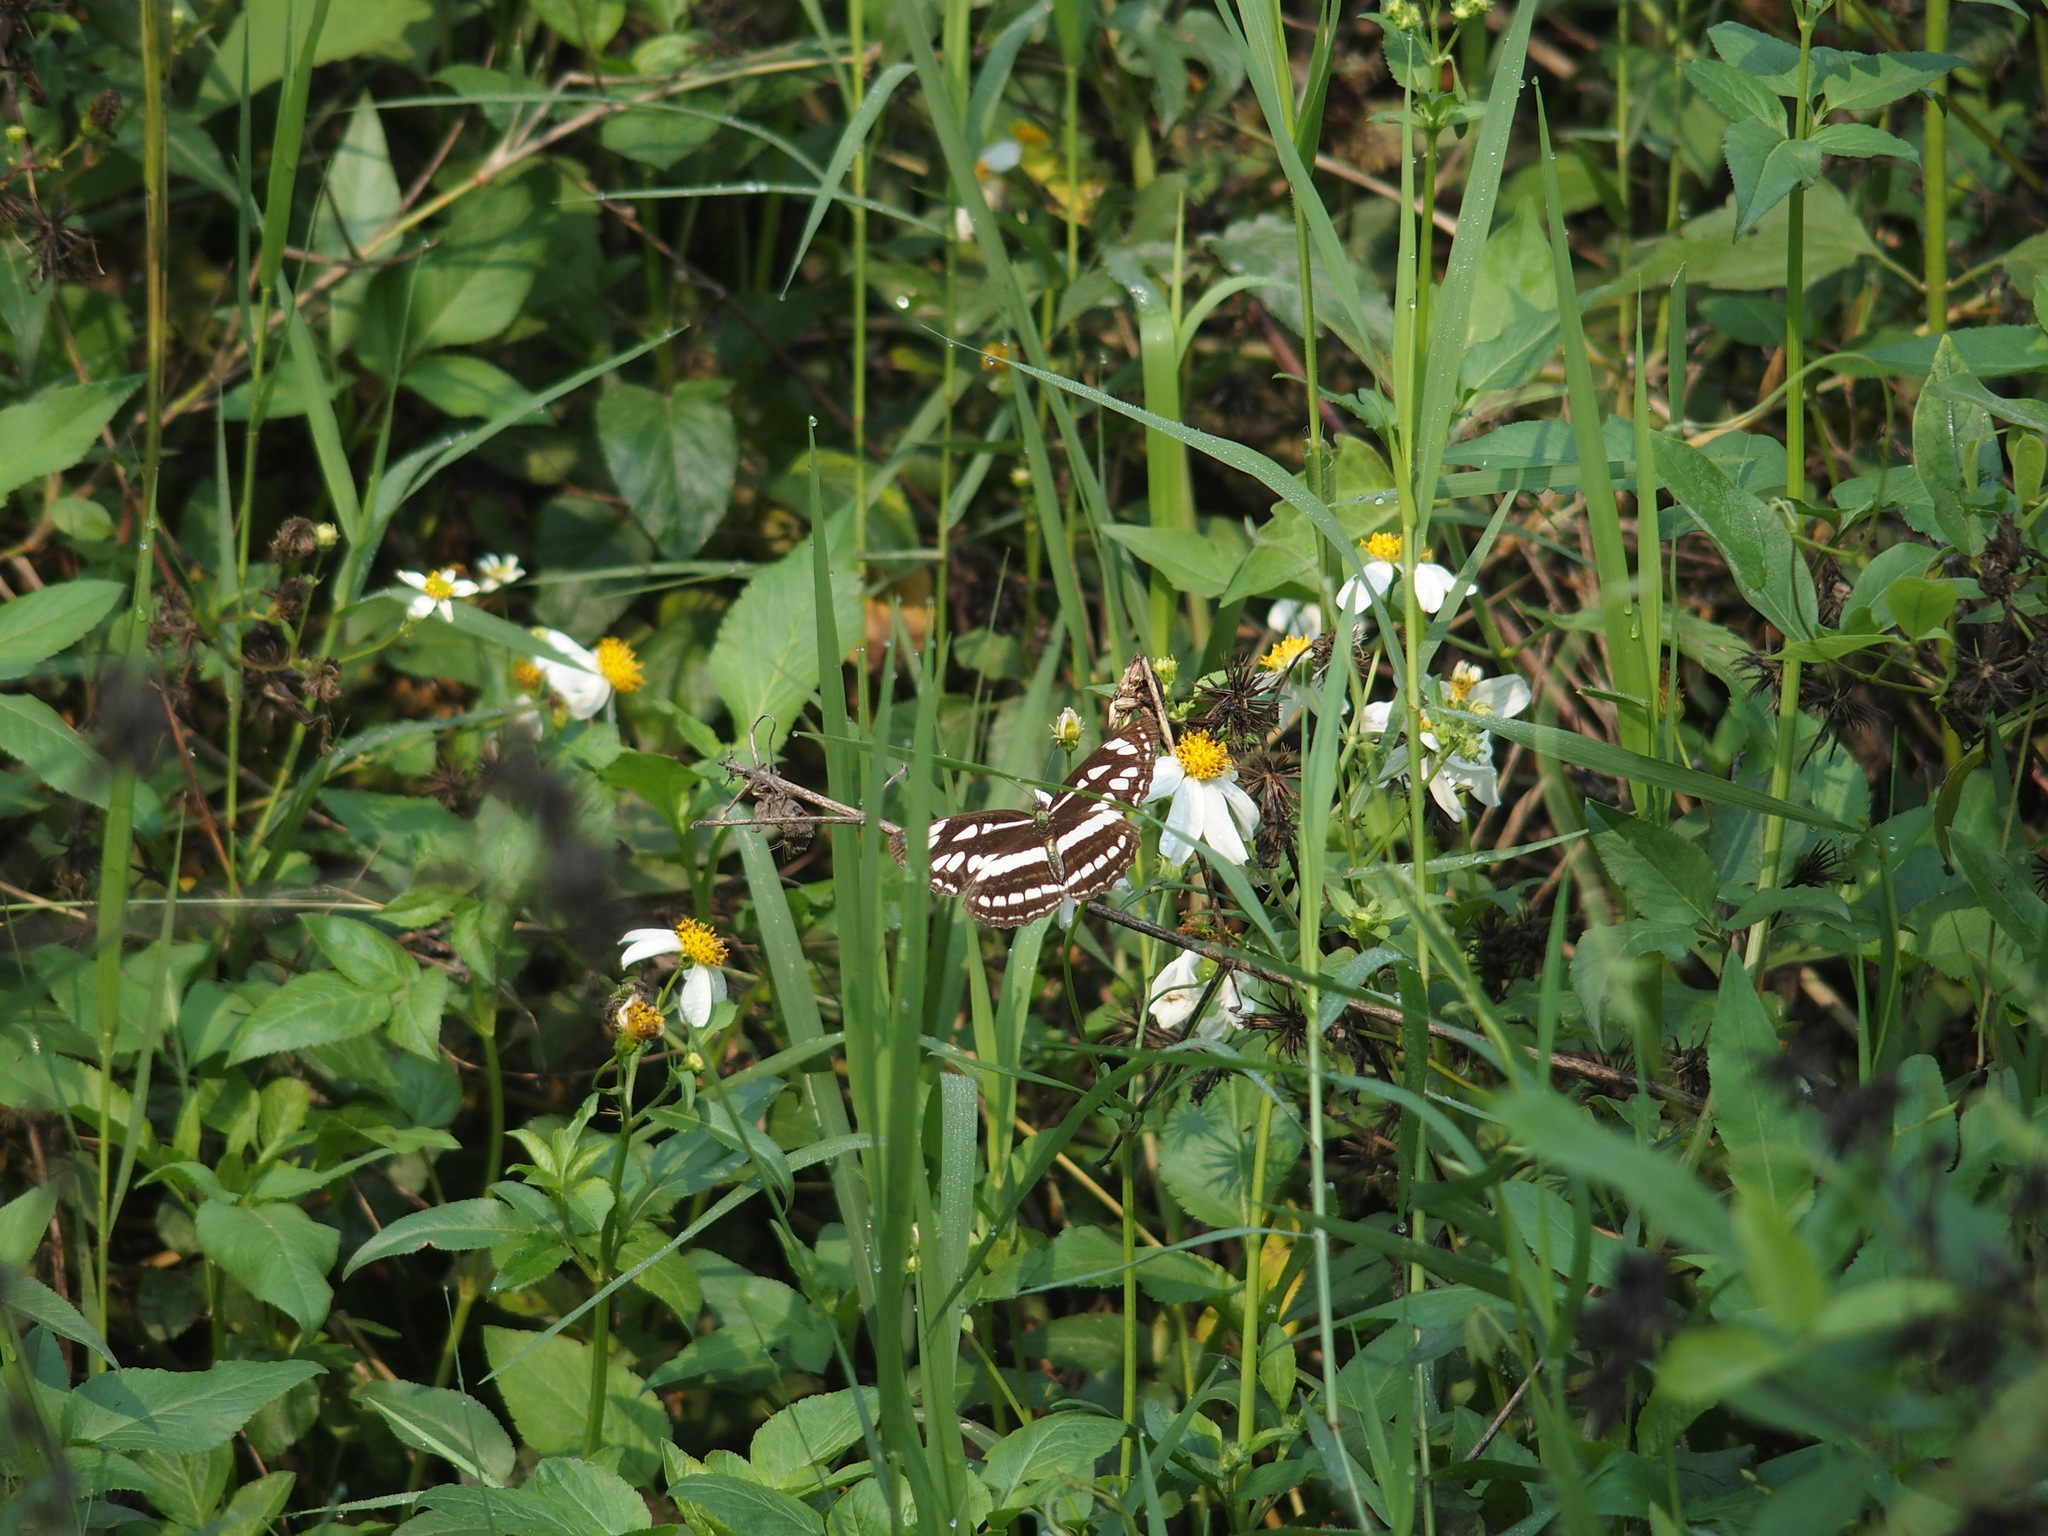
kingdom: Animalia
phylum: Arthropoda
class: Insecta
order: Lepidoptera
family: Nymphalidae
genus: Neptis
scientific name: Neptis hylas
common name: Common sailer
